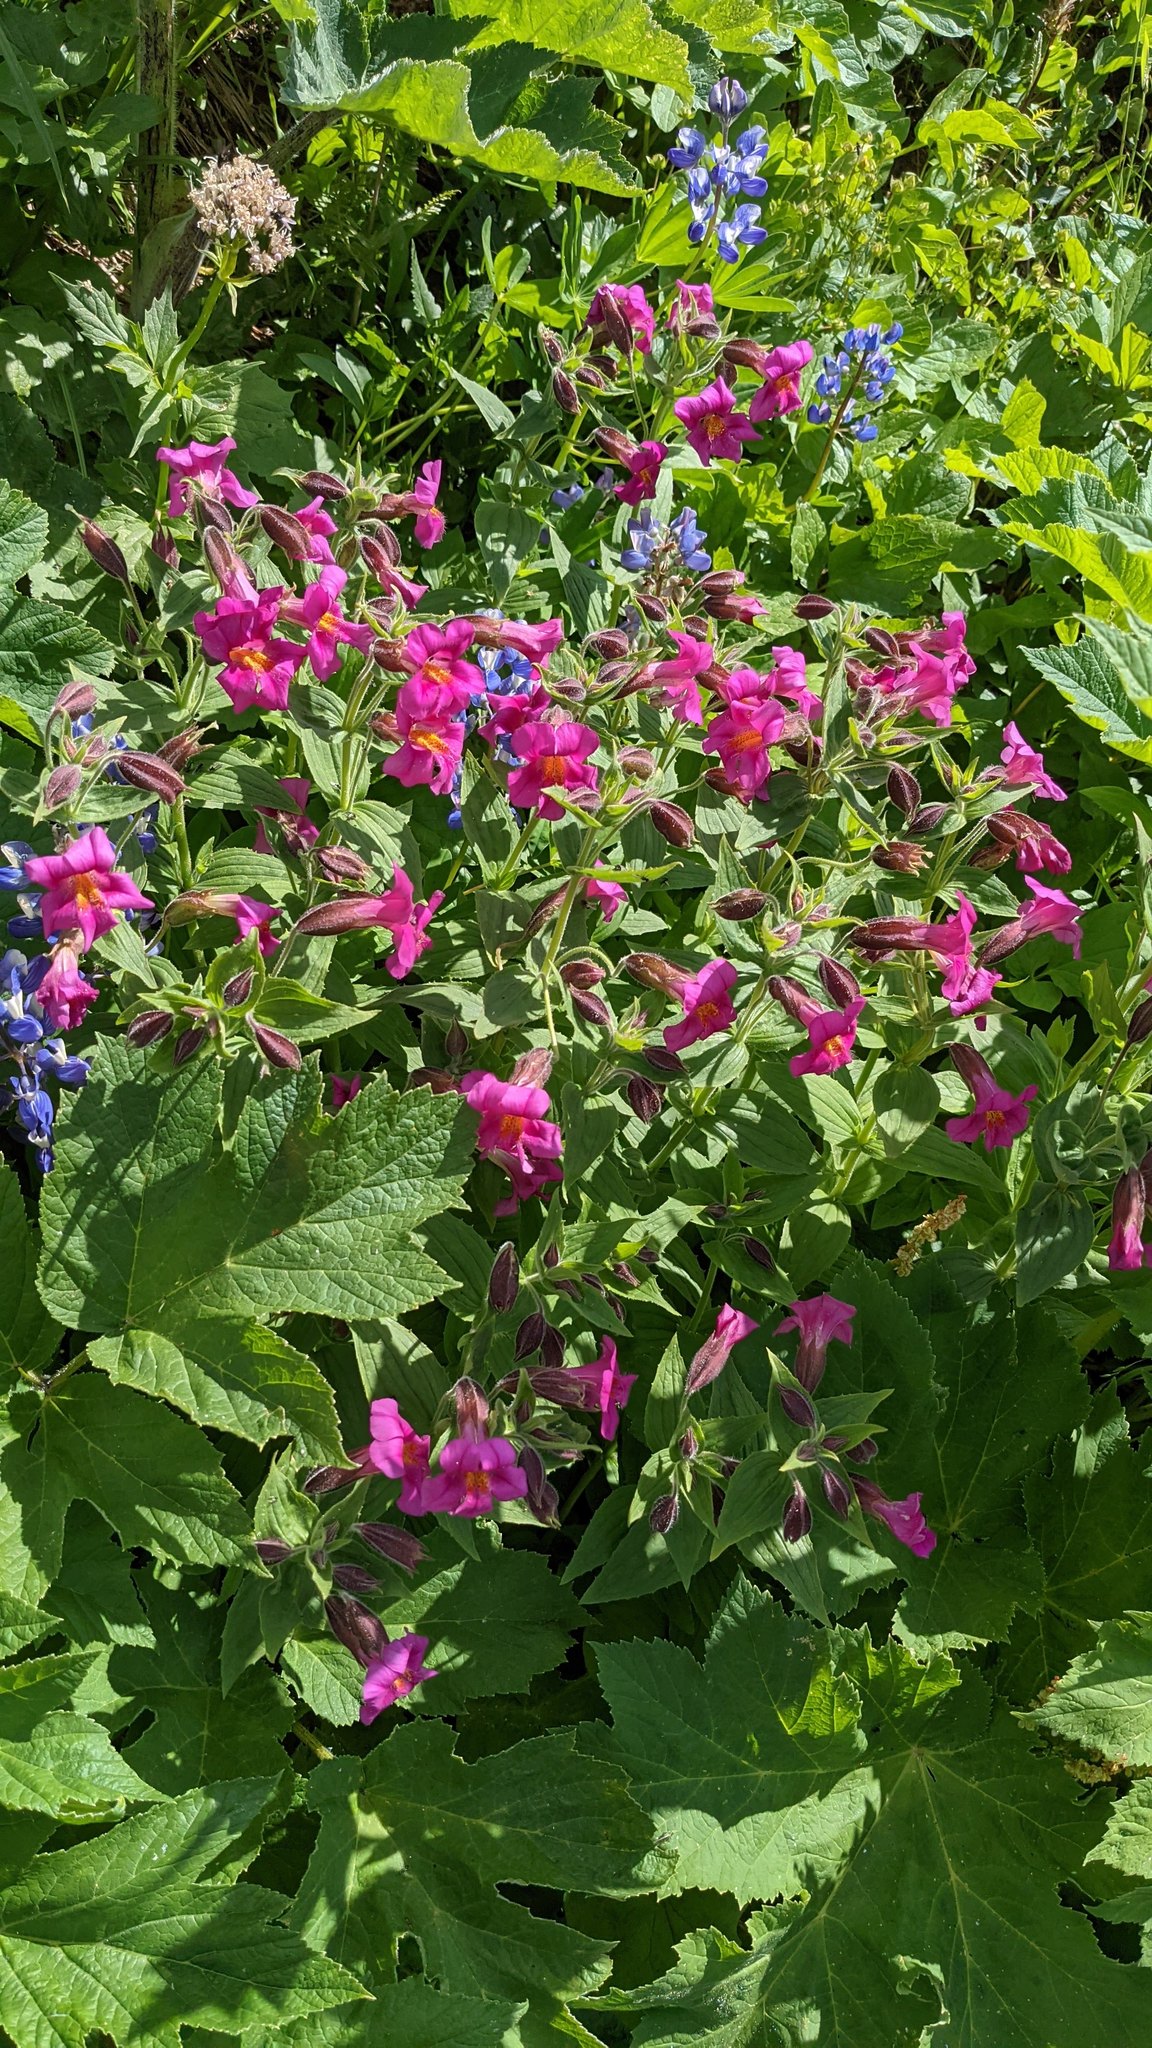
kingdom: Plantae
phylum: Tracheophyta
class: Magnoliopsida
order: Lamiales
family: Phrymaceae
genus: Erythranthe
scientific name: Erythranthe lewisii
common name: Lewis's monkey-flower
